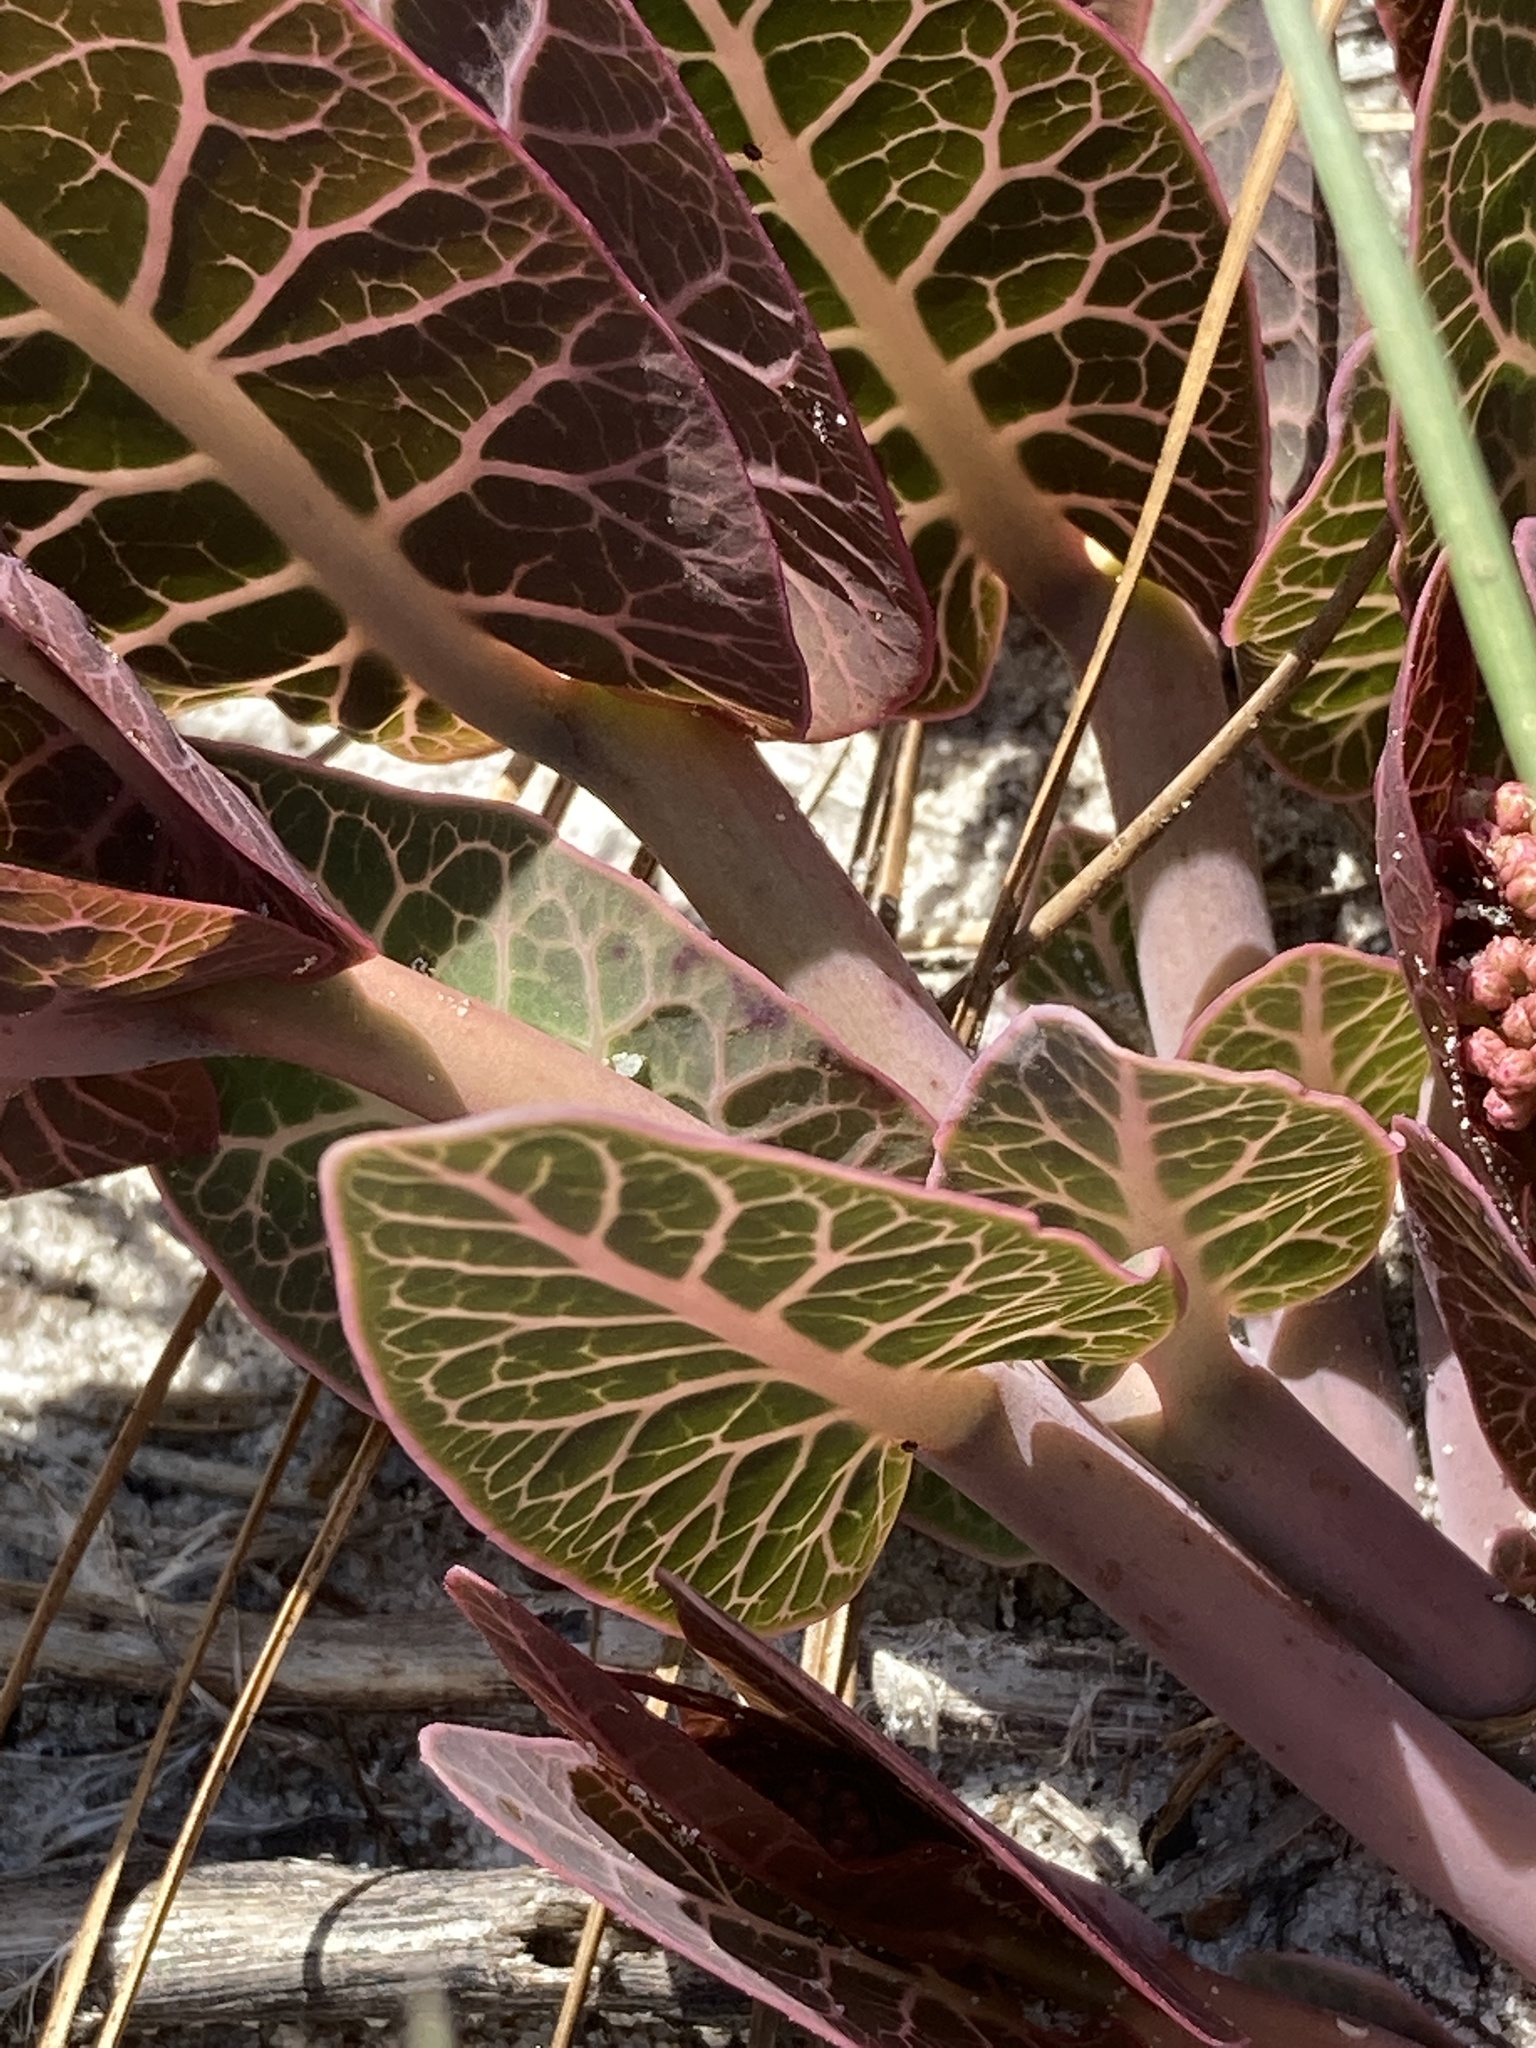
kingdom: Plantae
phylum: Tracheophyta
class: Magnoliopsida
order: Gentianales
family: Apocynaceae
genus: Asclepias
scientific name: Asclepias humistrata
